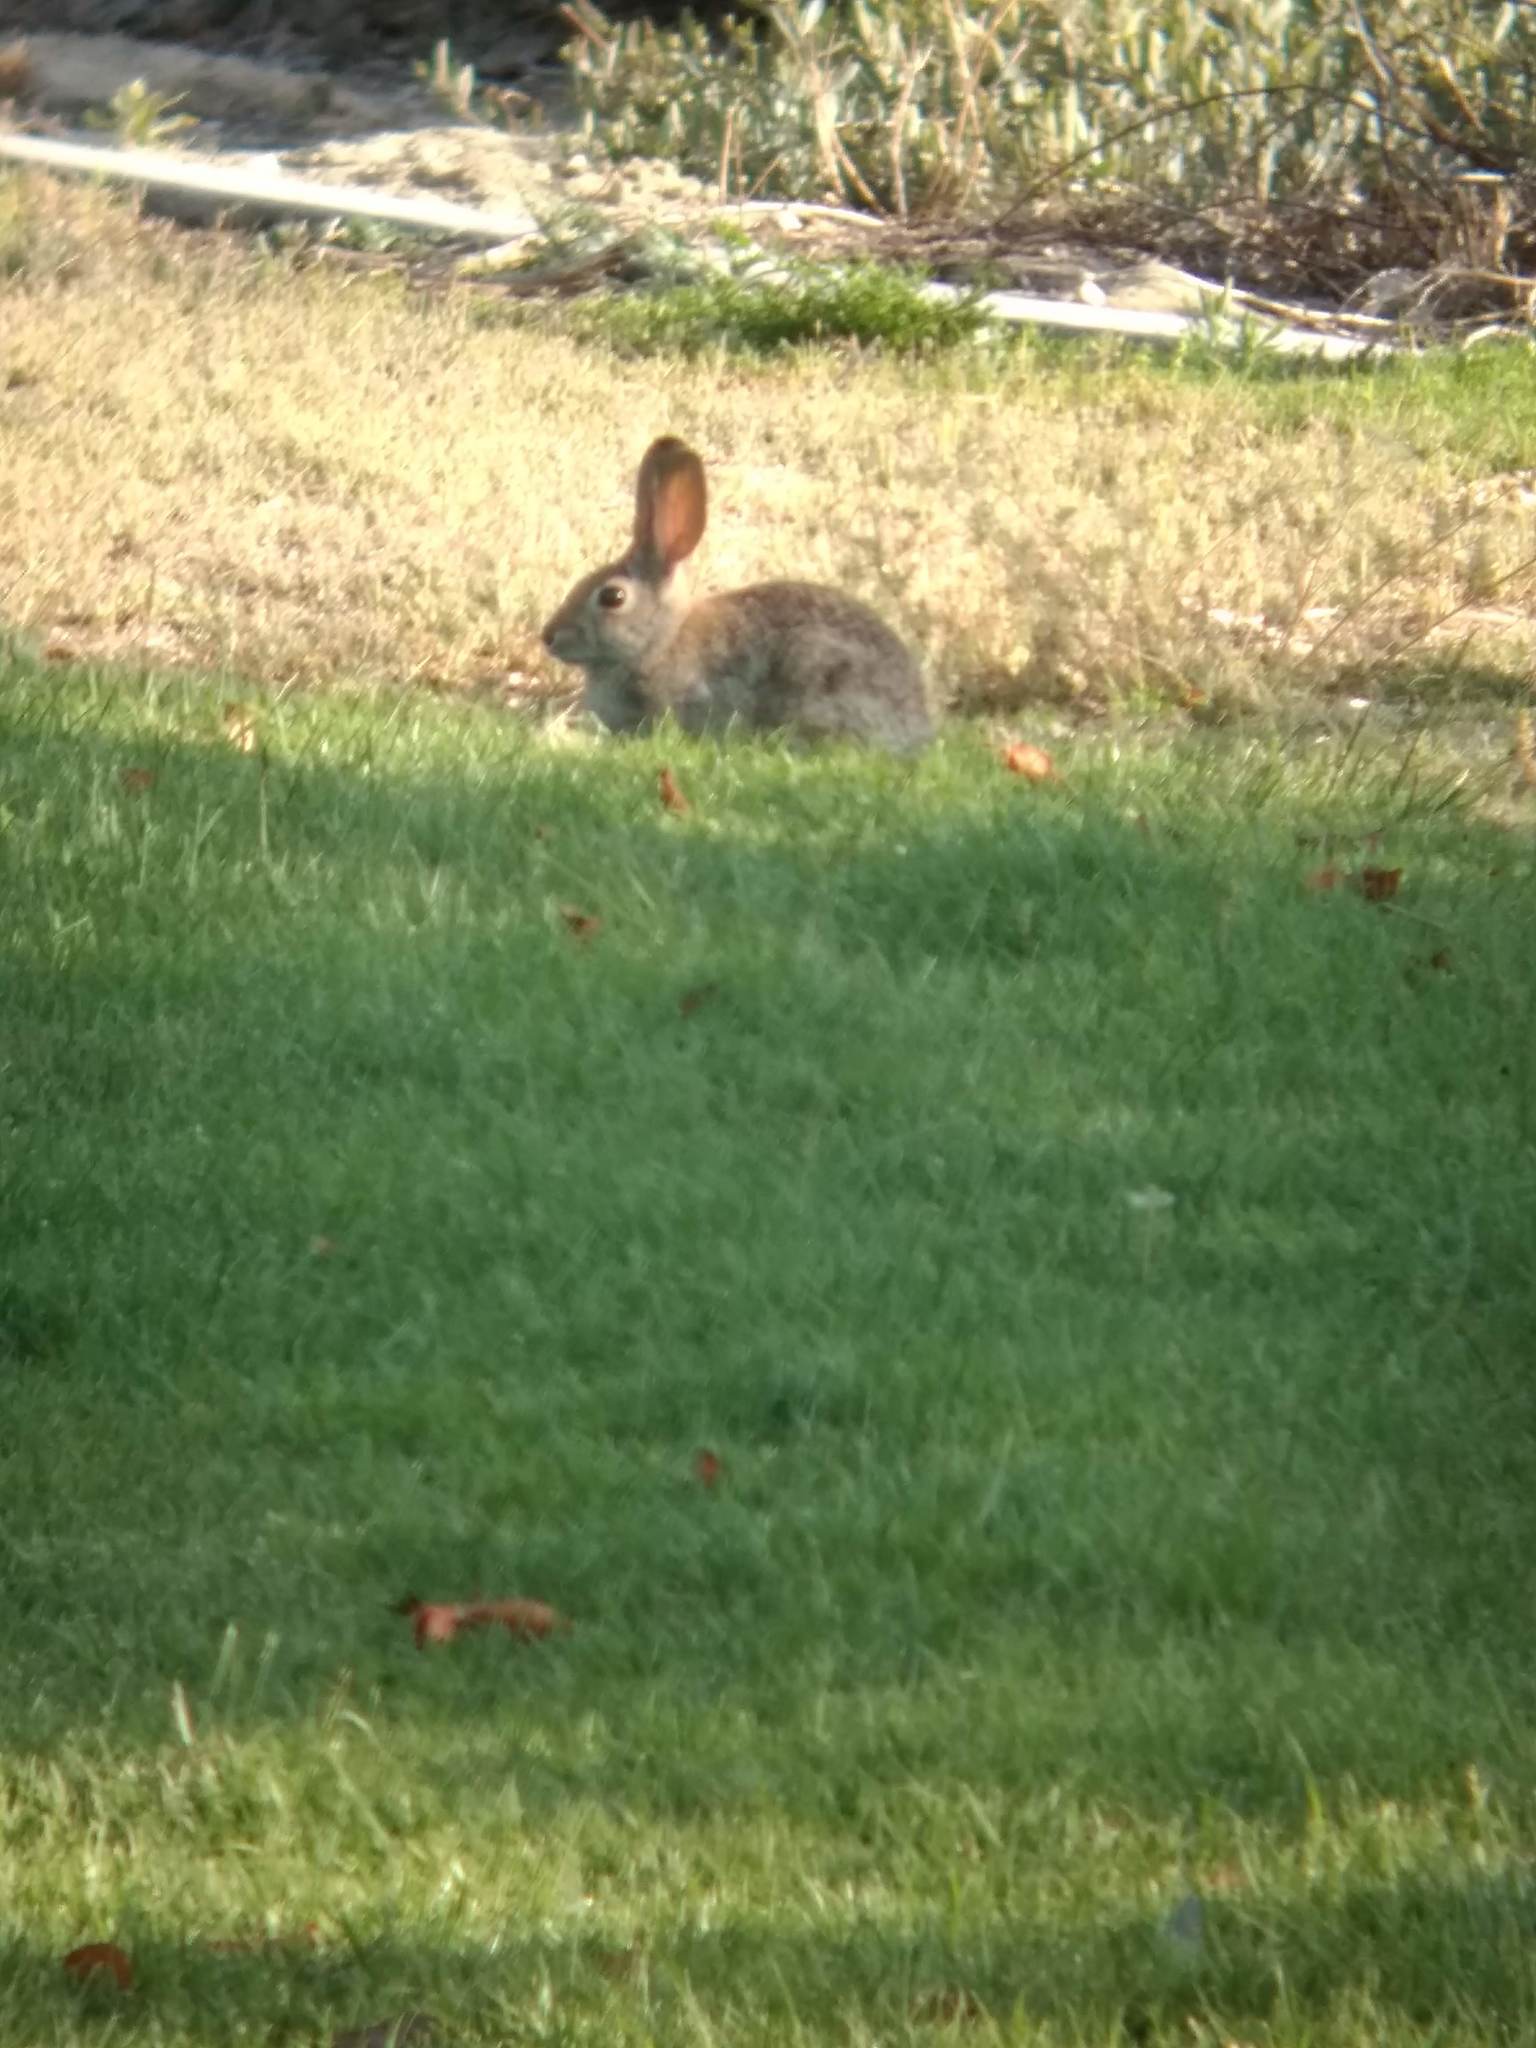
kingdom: Animalia
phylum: Chordata
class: Mammalia
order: Lagomorpha
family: Leporidae
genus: Sylvilagus
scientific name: Sylvilagus audubonii
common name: Desert cottontail
